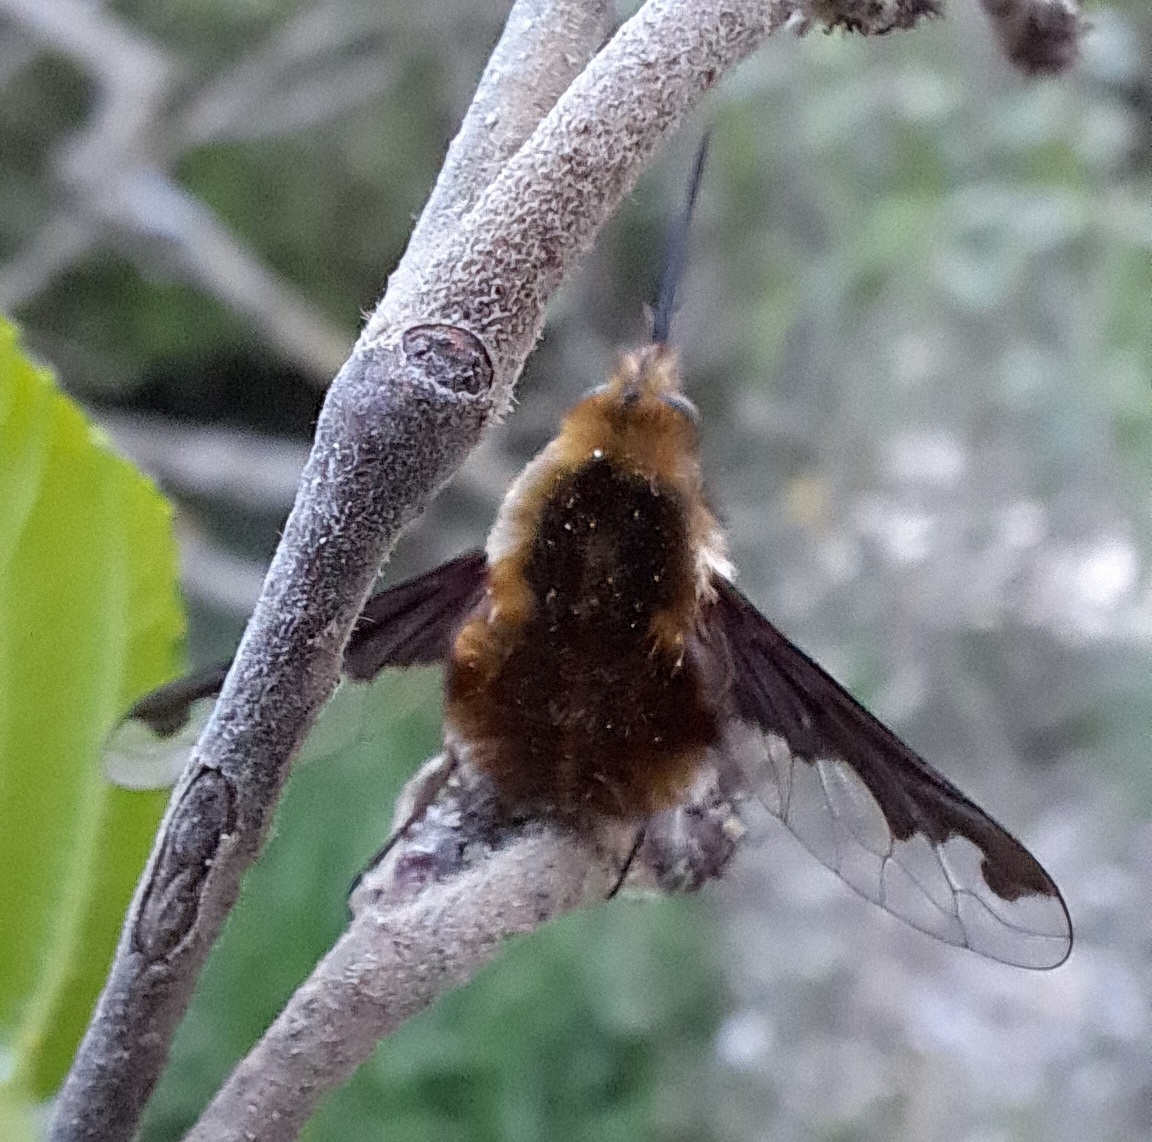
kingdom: Animalia
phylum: Arthropoda
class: Insecta
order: Diptera
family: Bombyliidae
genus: Bombylius
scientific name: Bombylius major
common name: Bee fly
